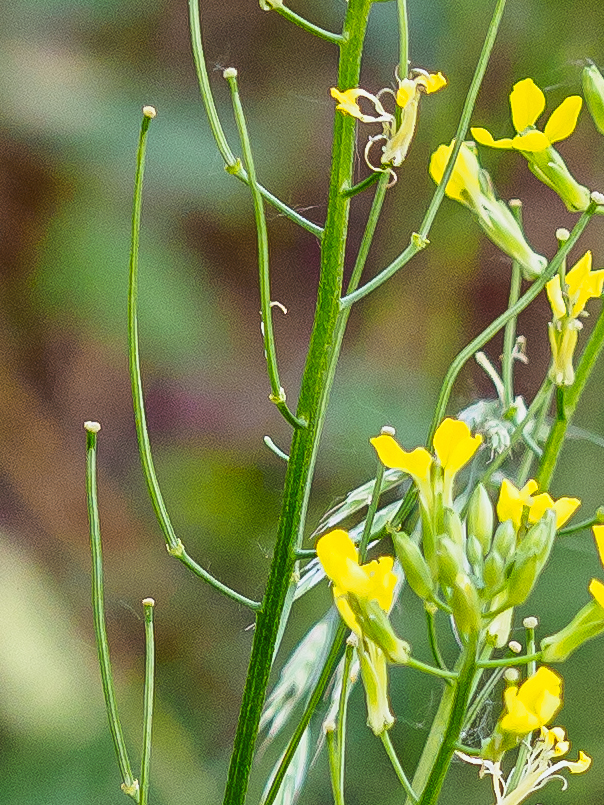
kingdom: Plantae
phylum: Tracheophyta
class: Magnoliopsida
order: Brassicales
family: Brassicaceae
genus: Erysimum
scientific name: Erysimum cheiranthoides
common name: Treacle mustard
